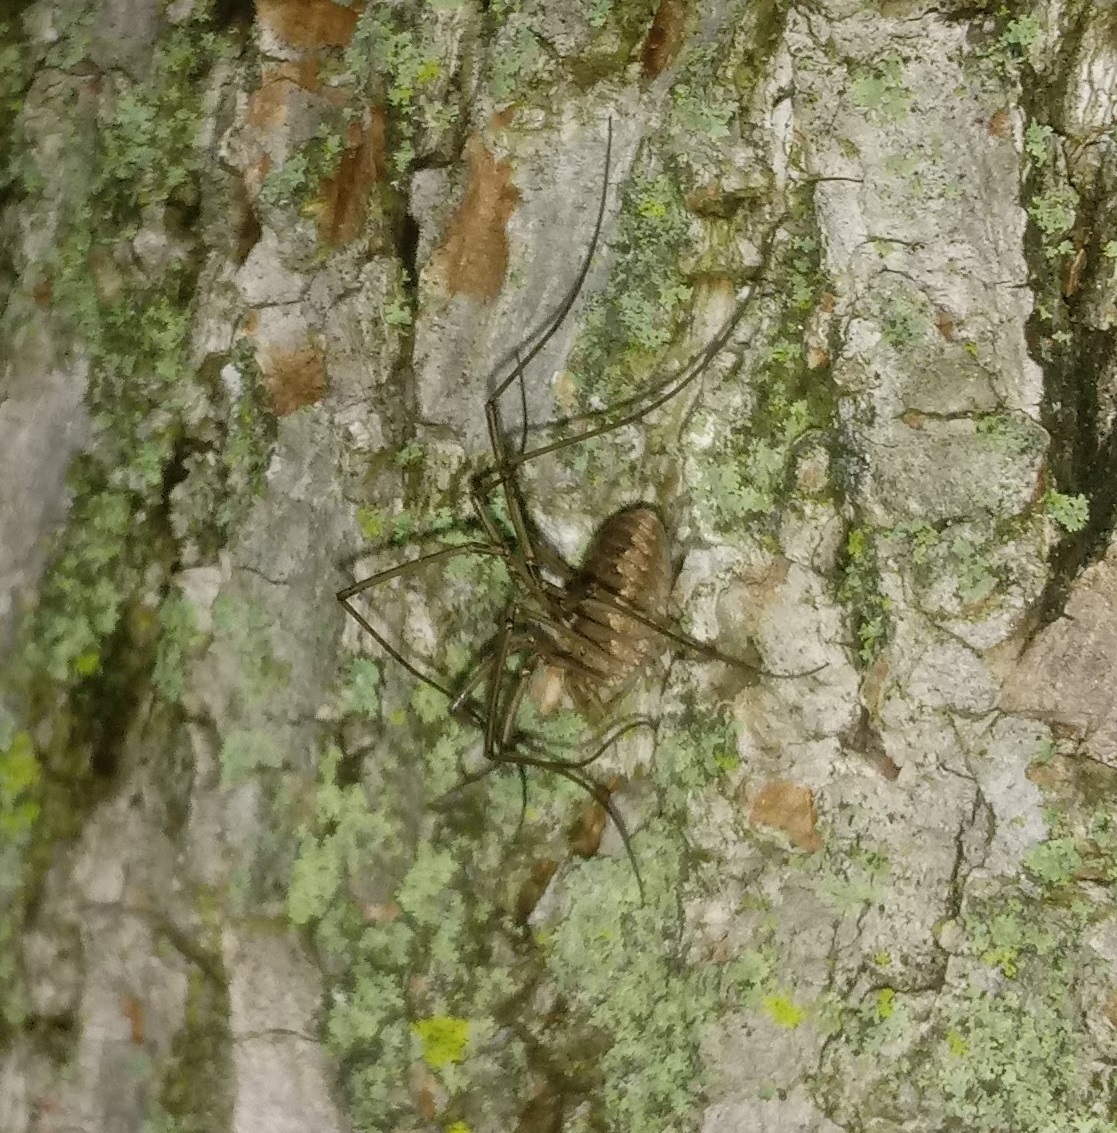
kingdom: Animalia
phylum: Arthropoda
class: Arachnida
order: Opiliones
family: Phalangiidae
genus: Phalangium
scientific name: Phalangium opilio
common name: Daddy longleg
